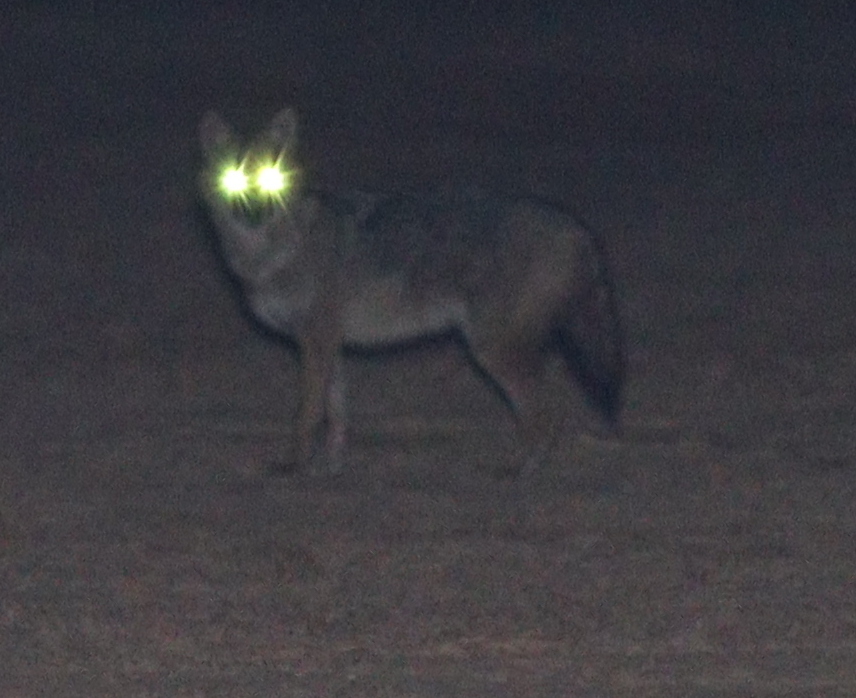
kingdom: Animalia
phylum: Chordata
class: Mammalia
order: Carnivora
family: Canidae
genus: Canis
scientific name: Canis aureus
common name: Golden jackal
